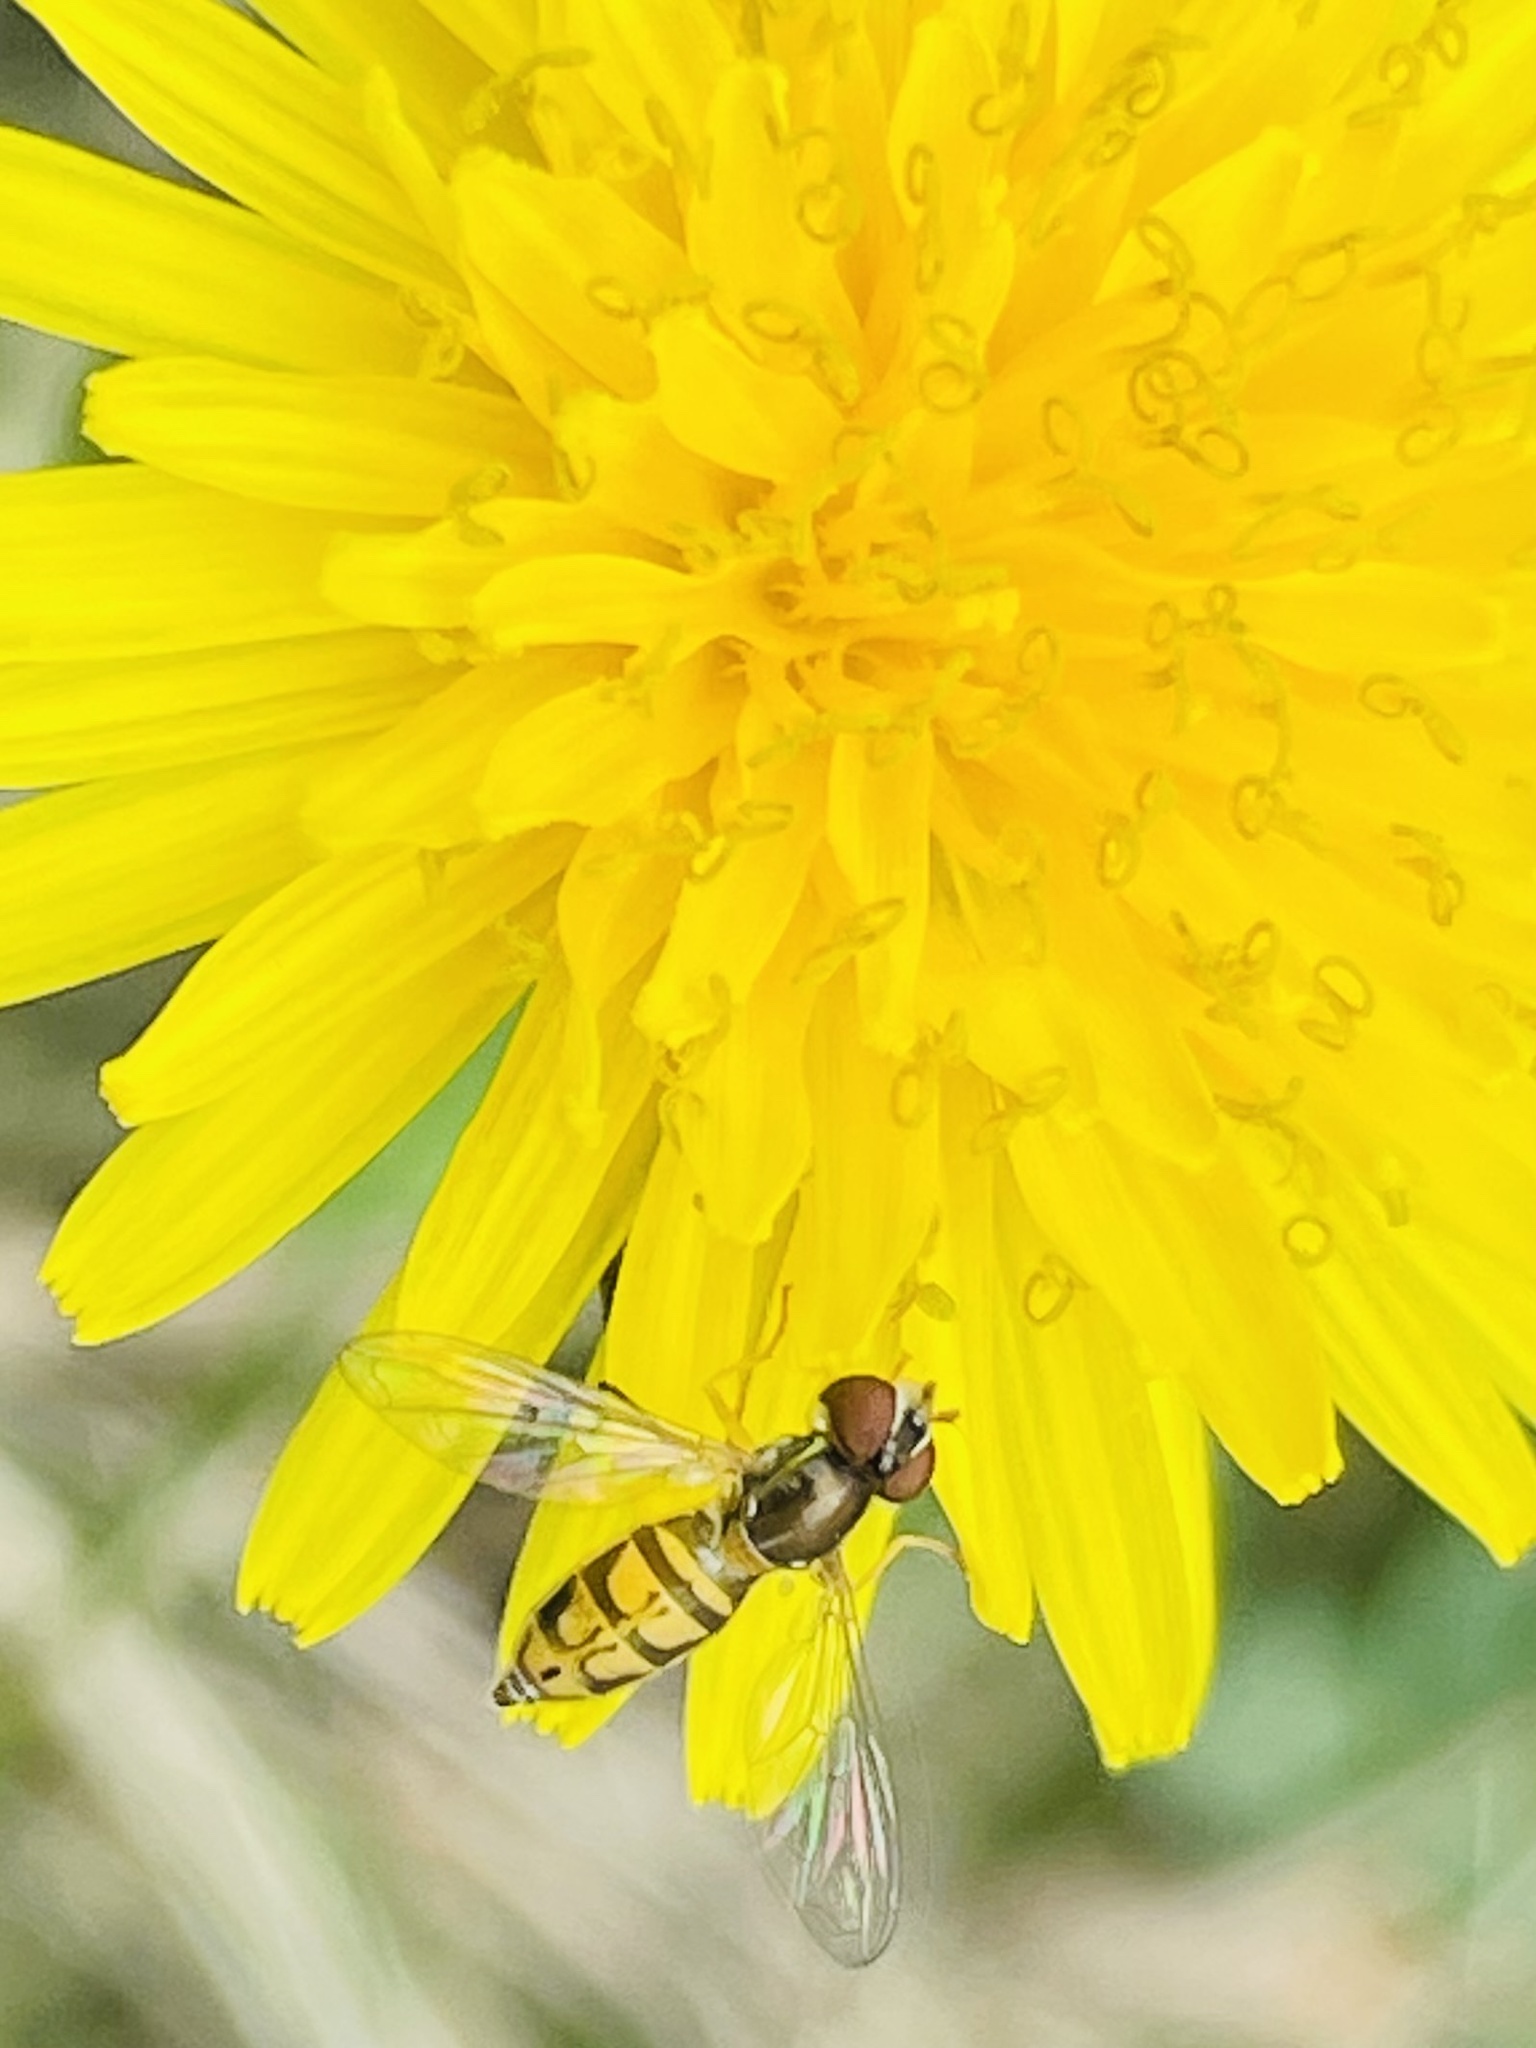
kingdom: Animalia
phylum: Arthropoda
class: Insecta
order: Diptera
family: Syrphidae
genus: Toxomerus
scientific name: Toxomerus marginatus
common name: Syrphid fly
